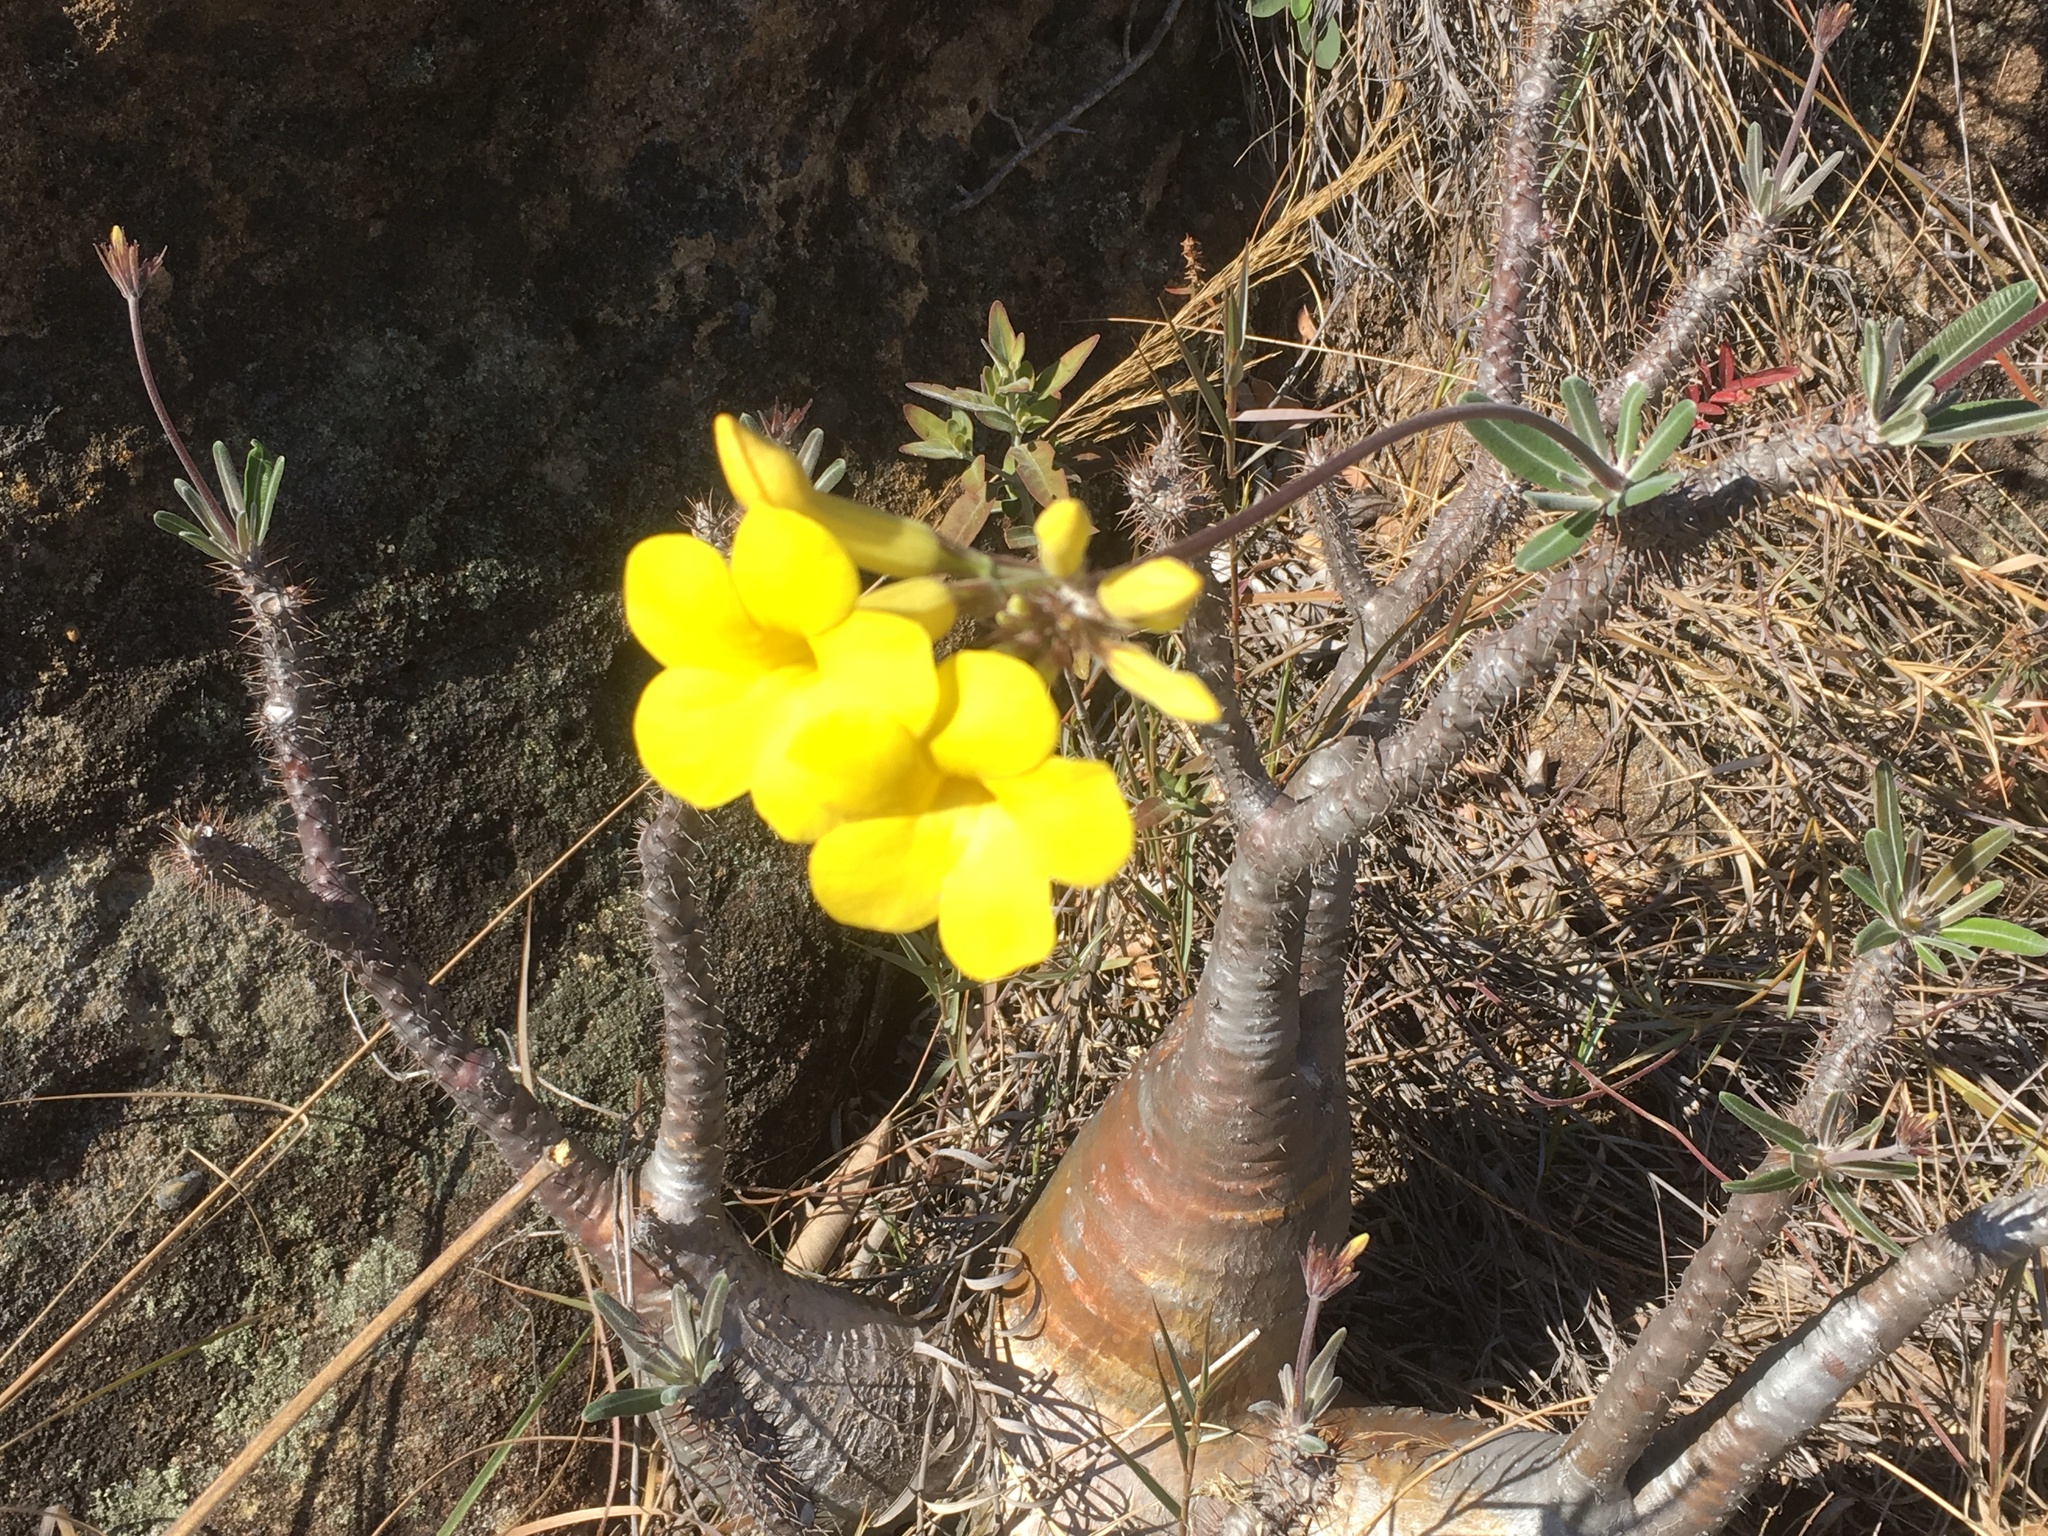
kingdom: Plantae
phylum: Tracheophyta
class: Magnoliopsida
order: Gentianales
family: Apocynaceae
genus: Pachypodium
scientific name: Pachypodium gracilius
